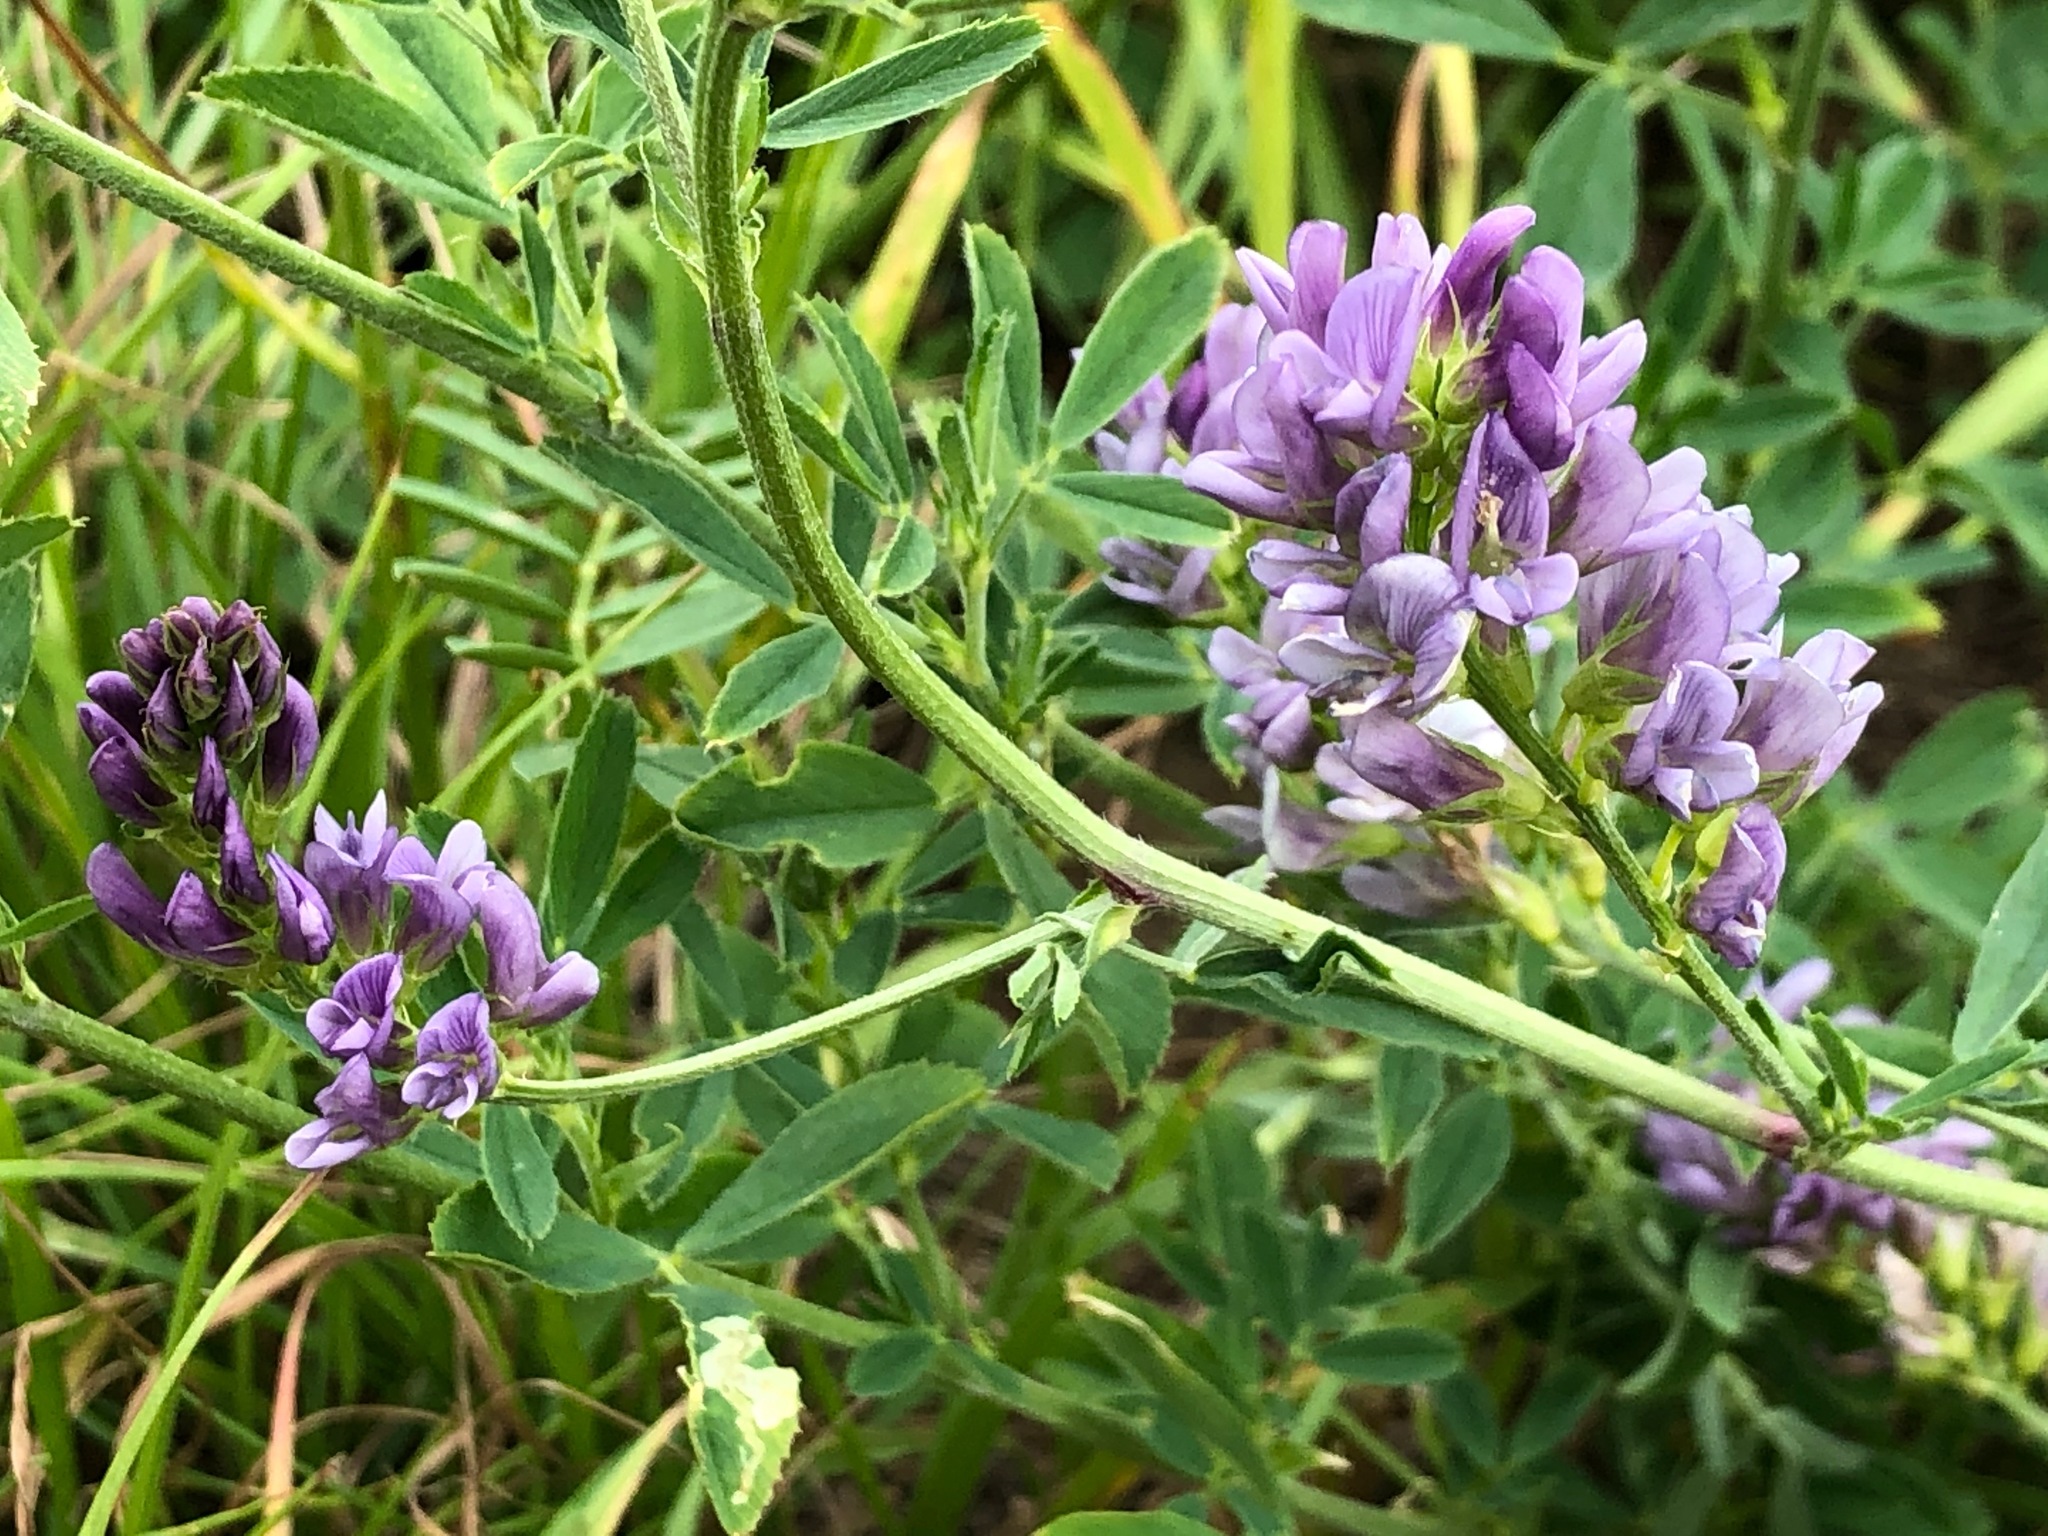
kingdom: Plantae
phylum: Tracheophyta
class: Magnoliopsida
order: Fabales
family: Fabaceae
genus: Medicago
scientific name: Medicago sativa
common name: Alfalfa
